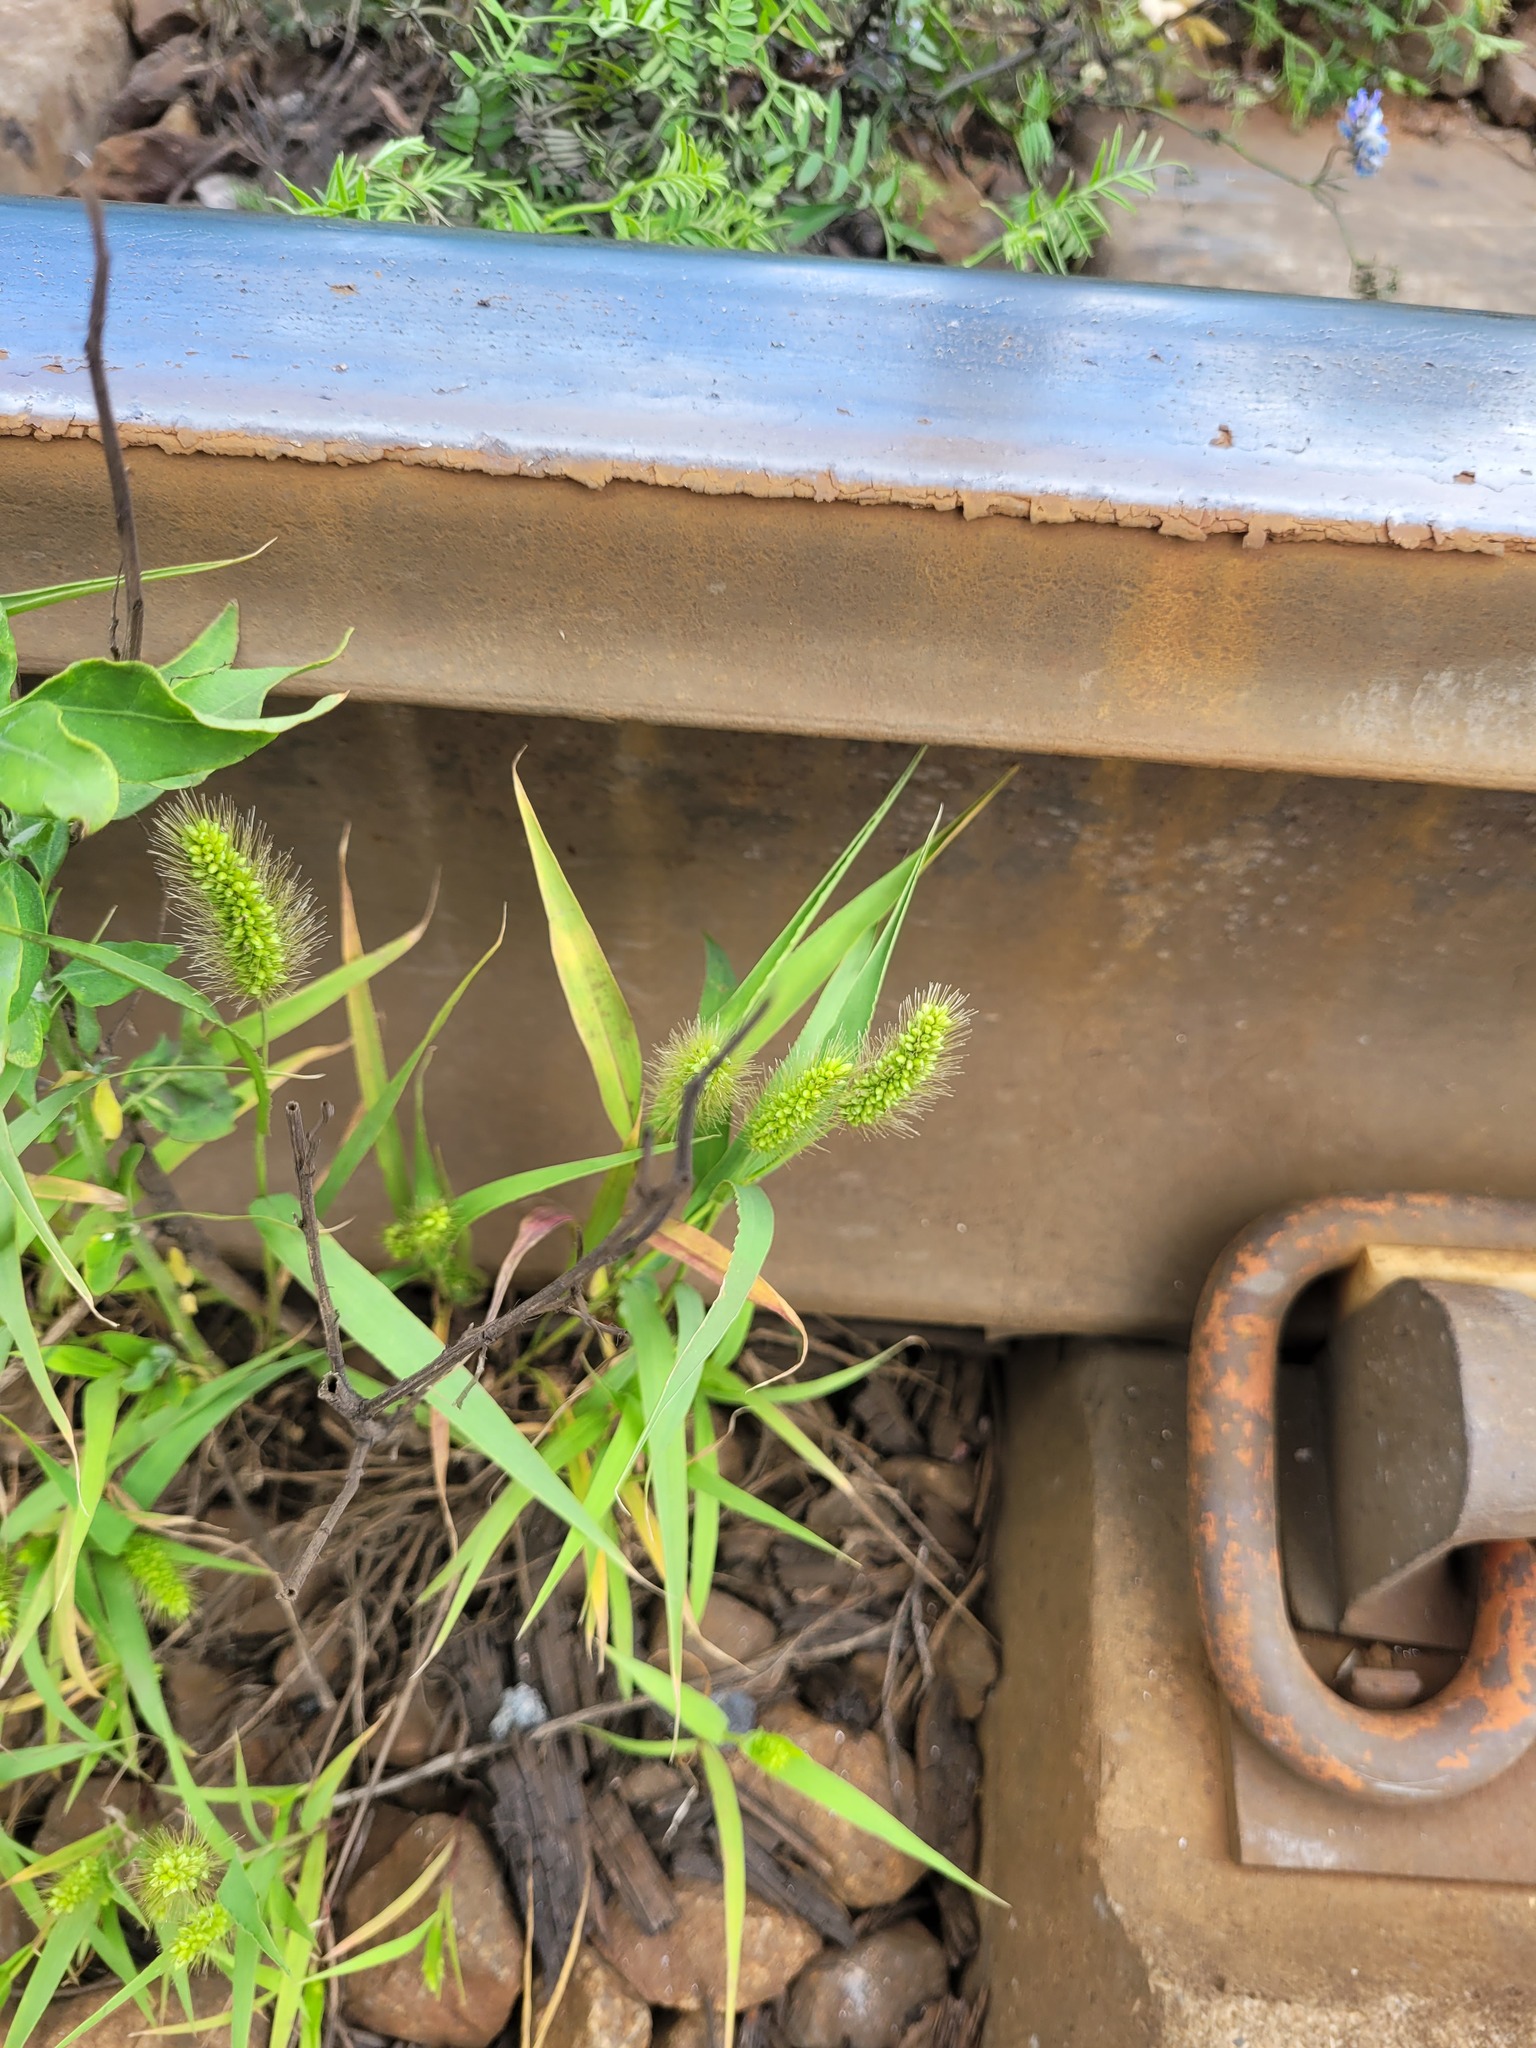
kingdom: Plantae
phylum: Tracheophyta
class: Liliopsida
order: Poales
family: Poaceae
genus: Setaria
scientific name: Setaria viridis
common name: Green bristlegrass
